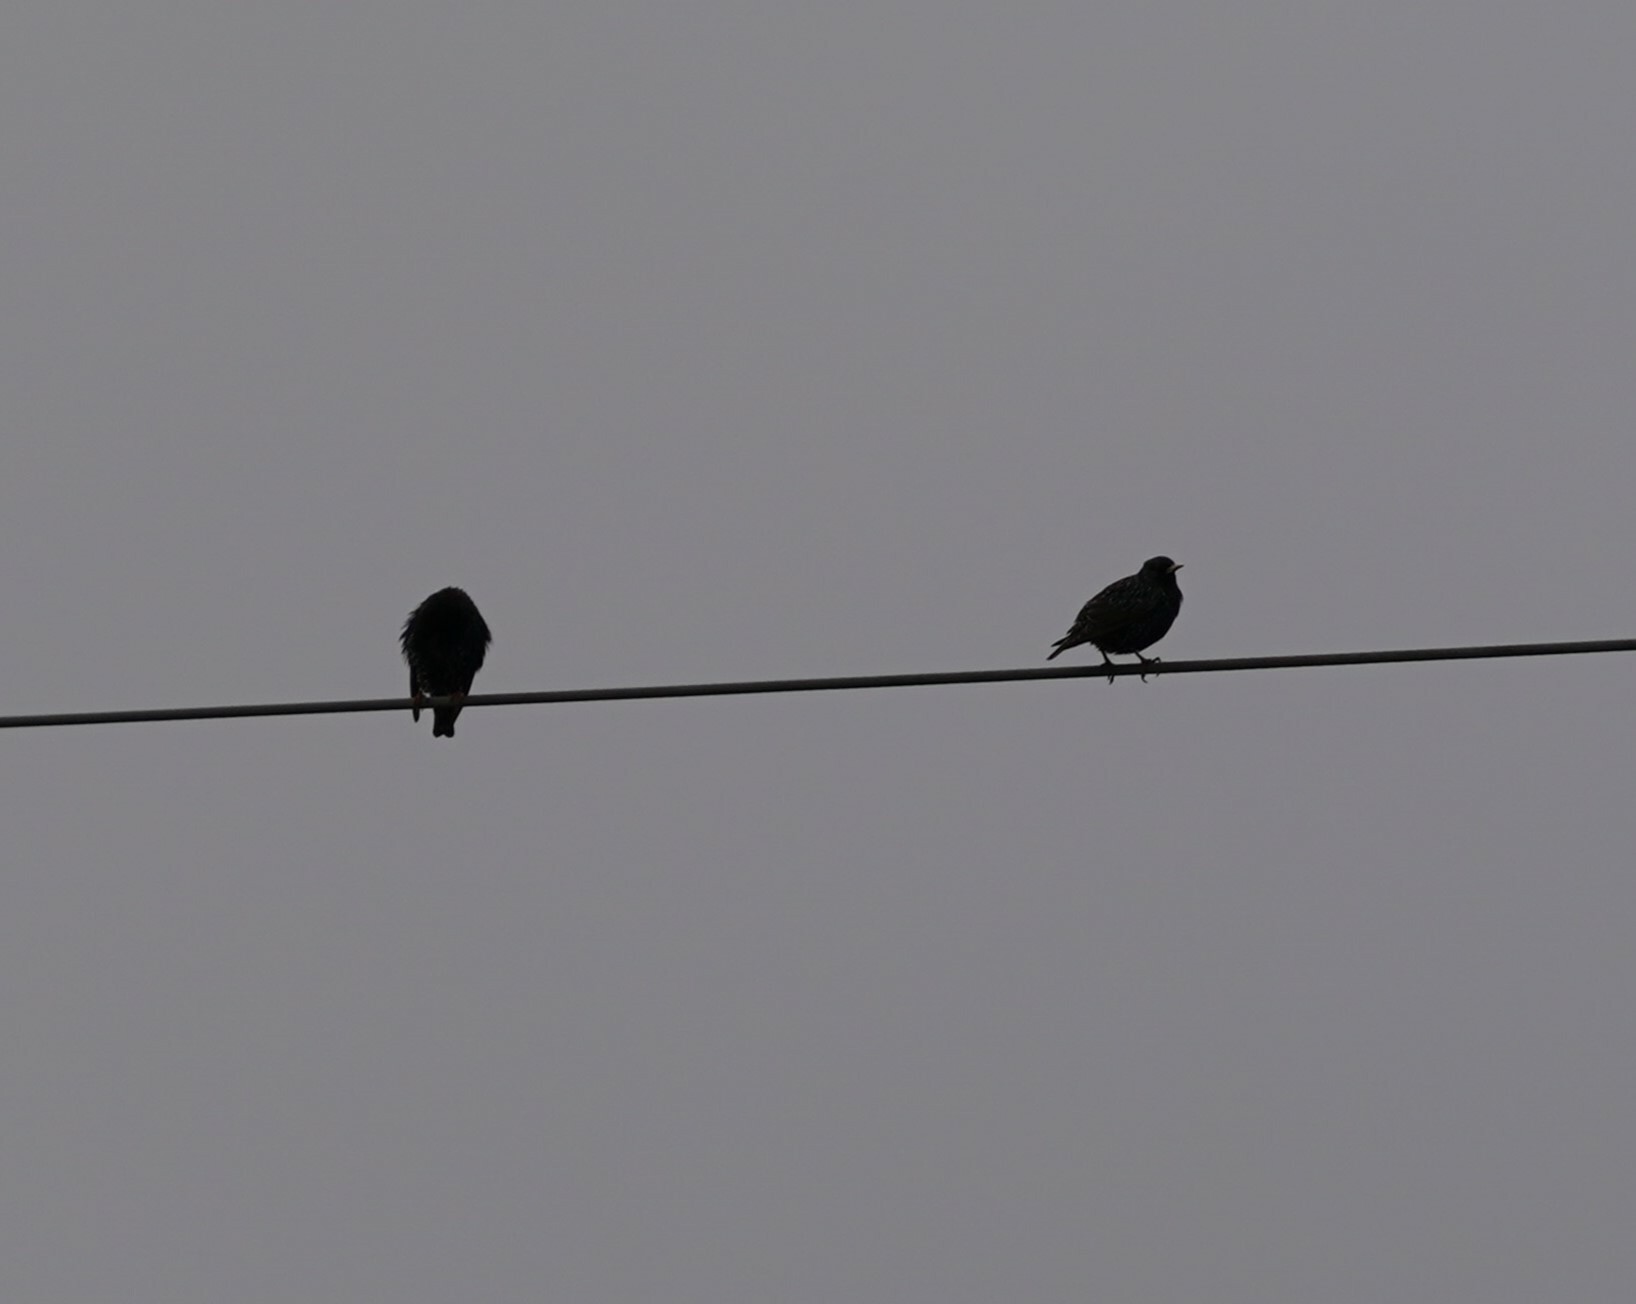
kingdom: Animalia
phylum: Chordata
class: Aves
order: Passeriformes
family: Sturnidae
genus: Sturnus
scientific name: Sturnus vulgaris
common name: Common starling
